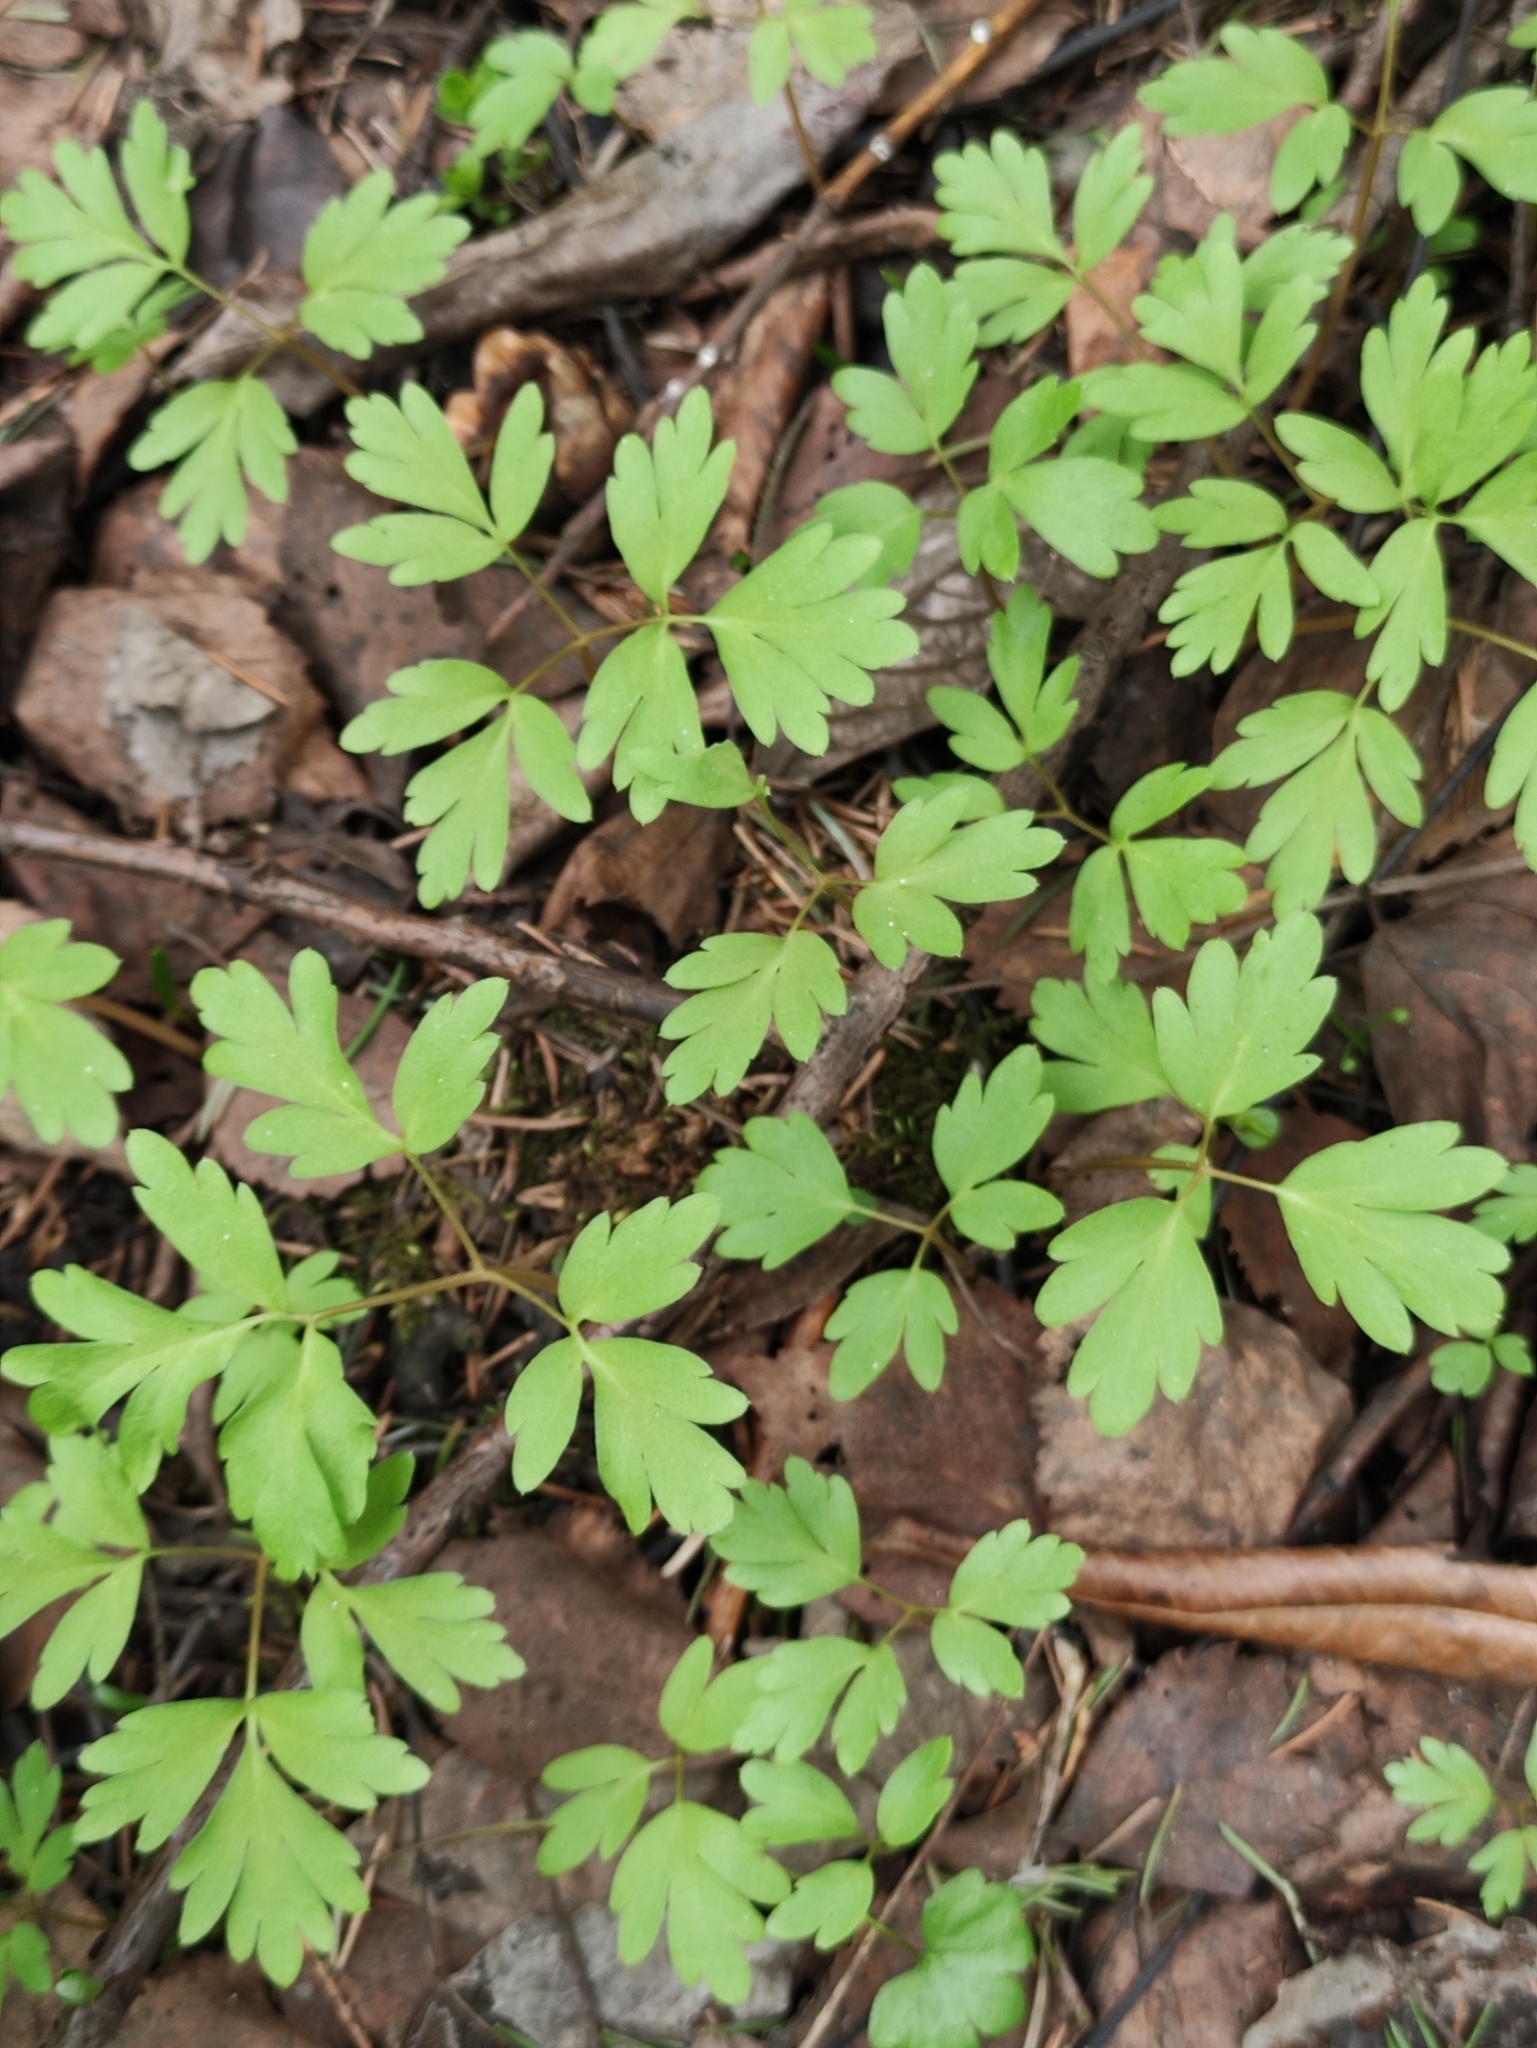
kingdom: Plantae
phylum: Tracheophyta
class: Magnoliopsida
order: Dipsacales
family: Viburnaceae
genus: Adoxa
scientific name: Adoxa moschatellina
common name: Moschatel
